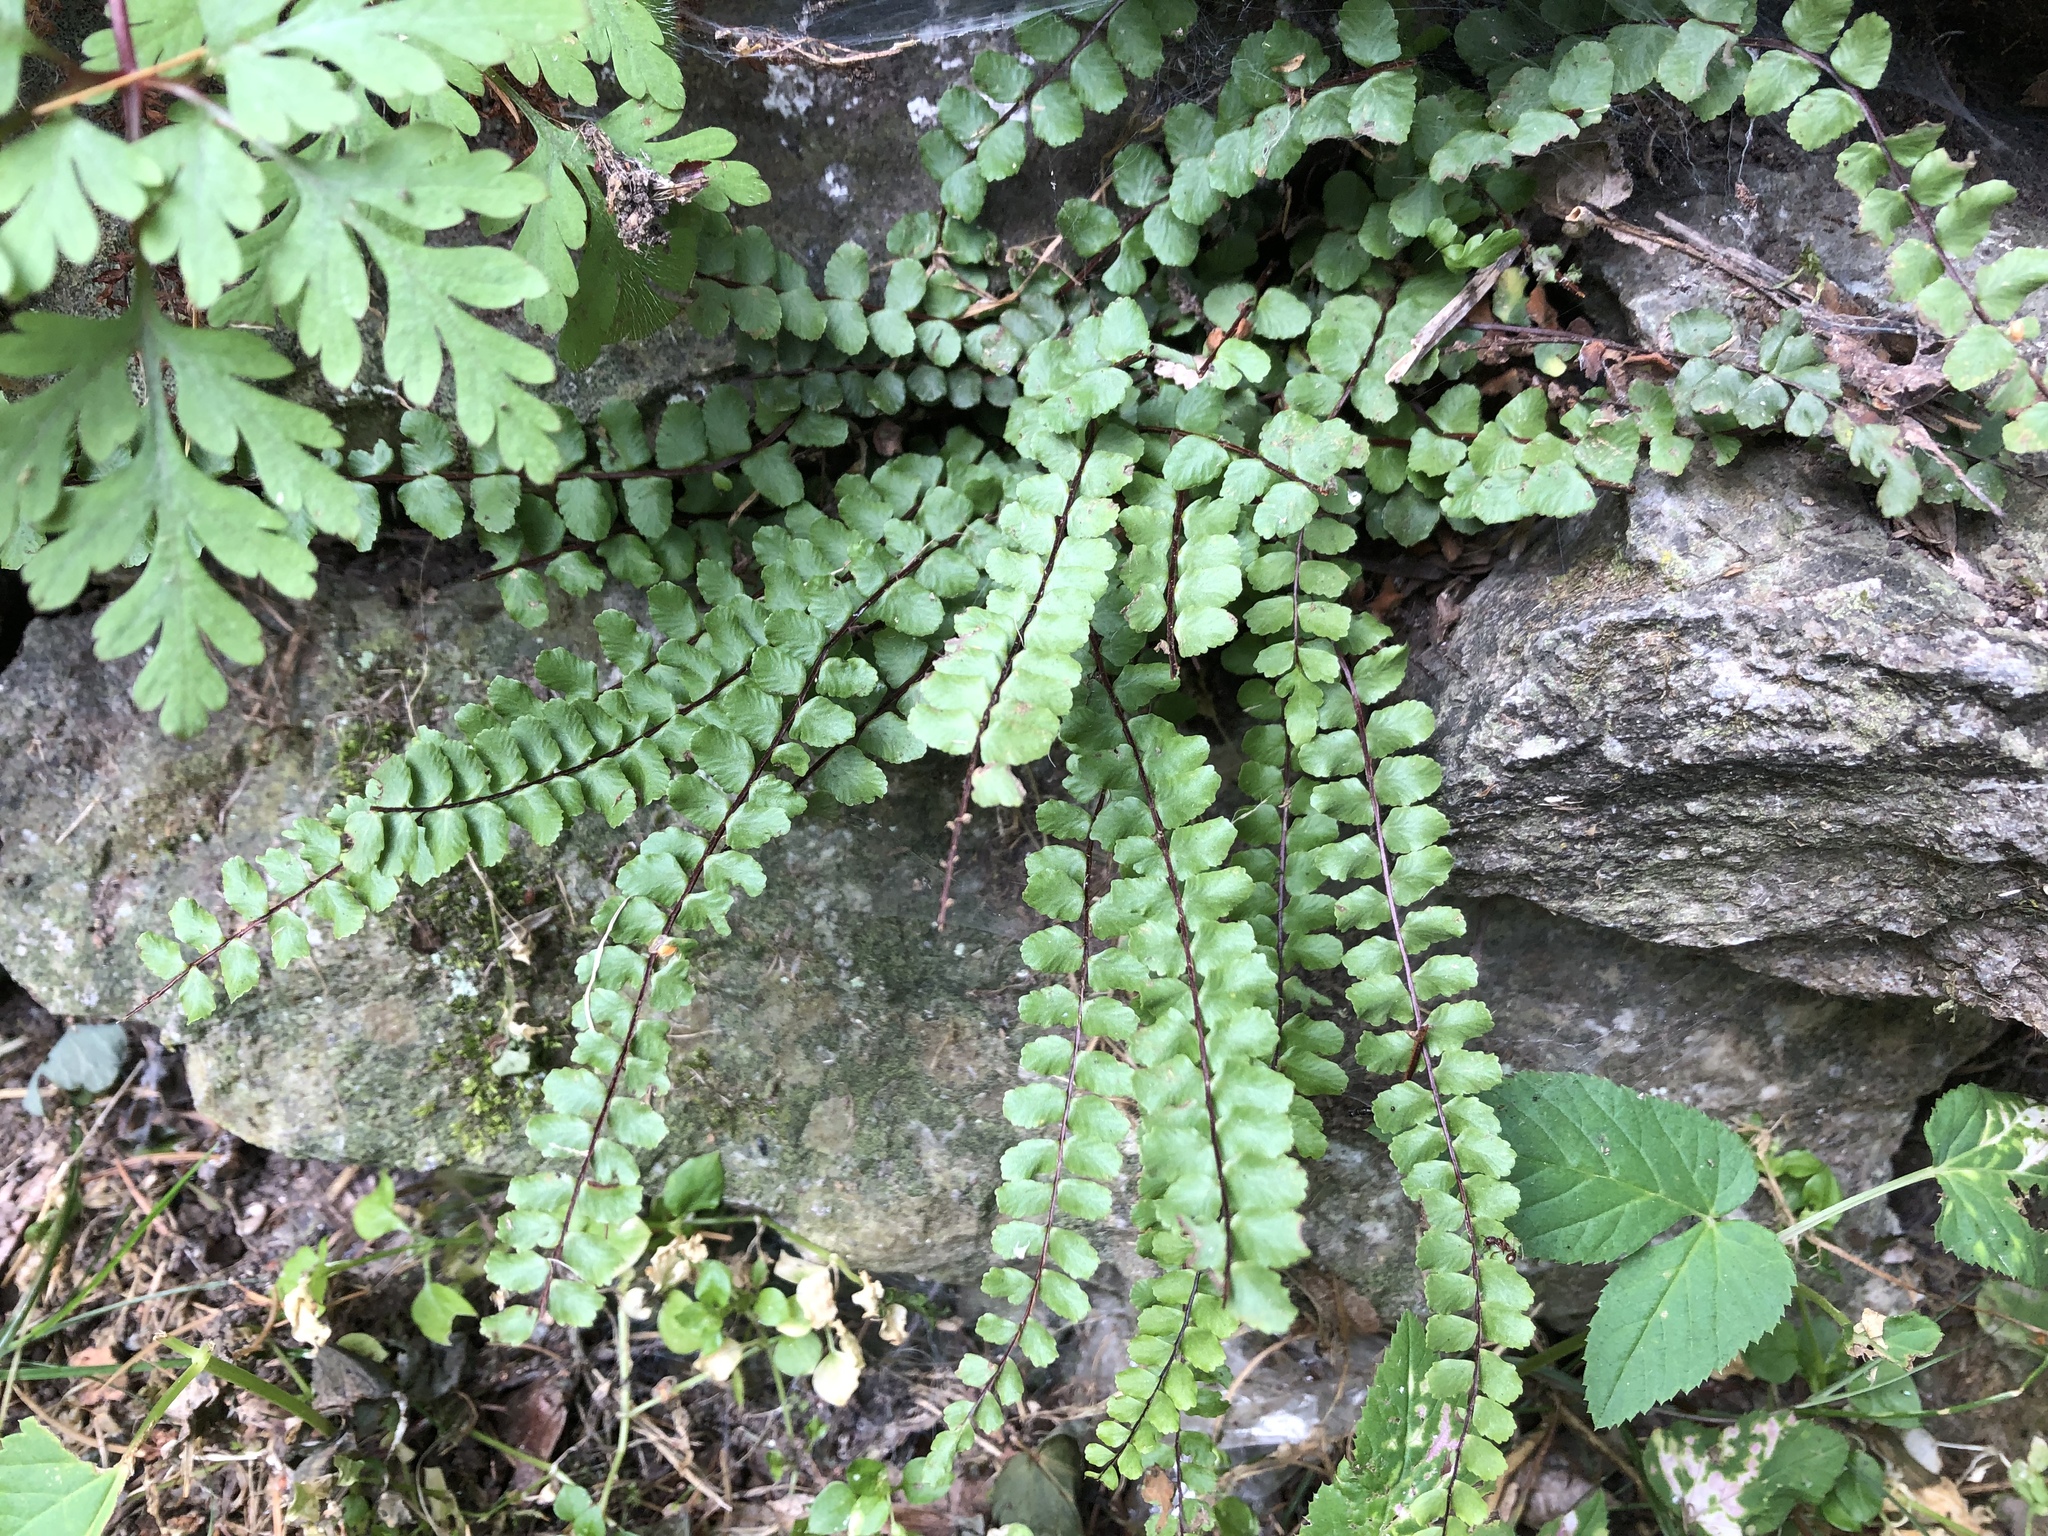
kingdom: Plantae
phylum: Tracheophyta
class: Polypodiopsida
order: Polypodiales
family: Aspleniaceae
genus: Asplenium
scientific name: Asplenium trichomanes
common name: Maidenhair spleenwort
